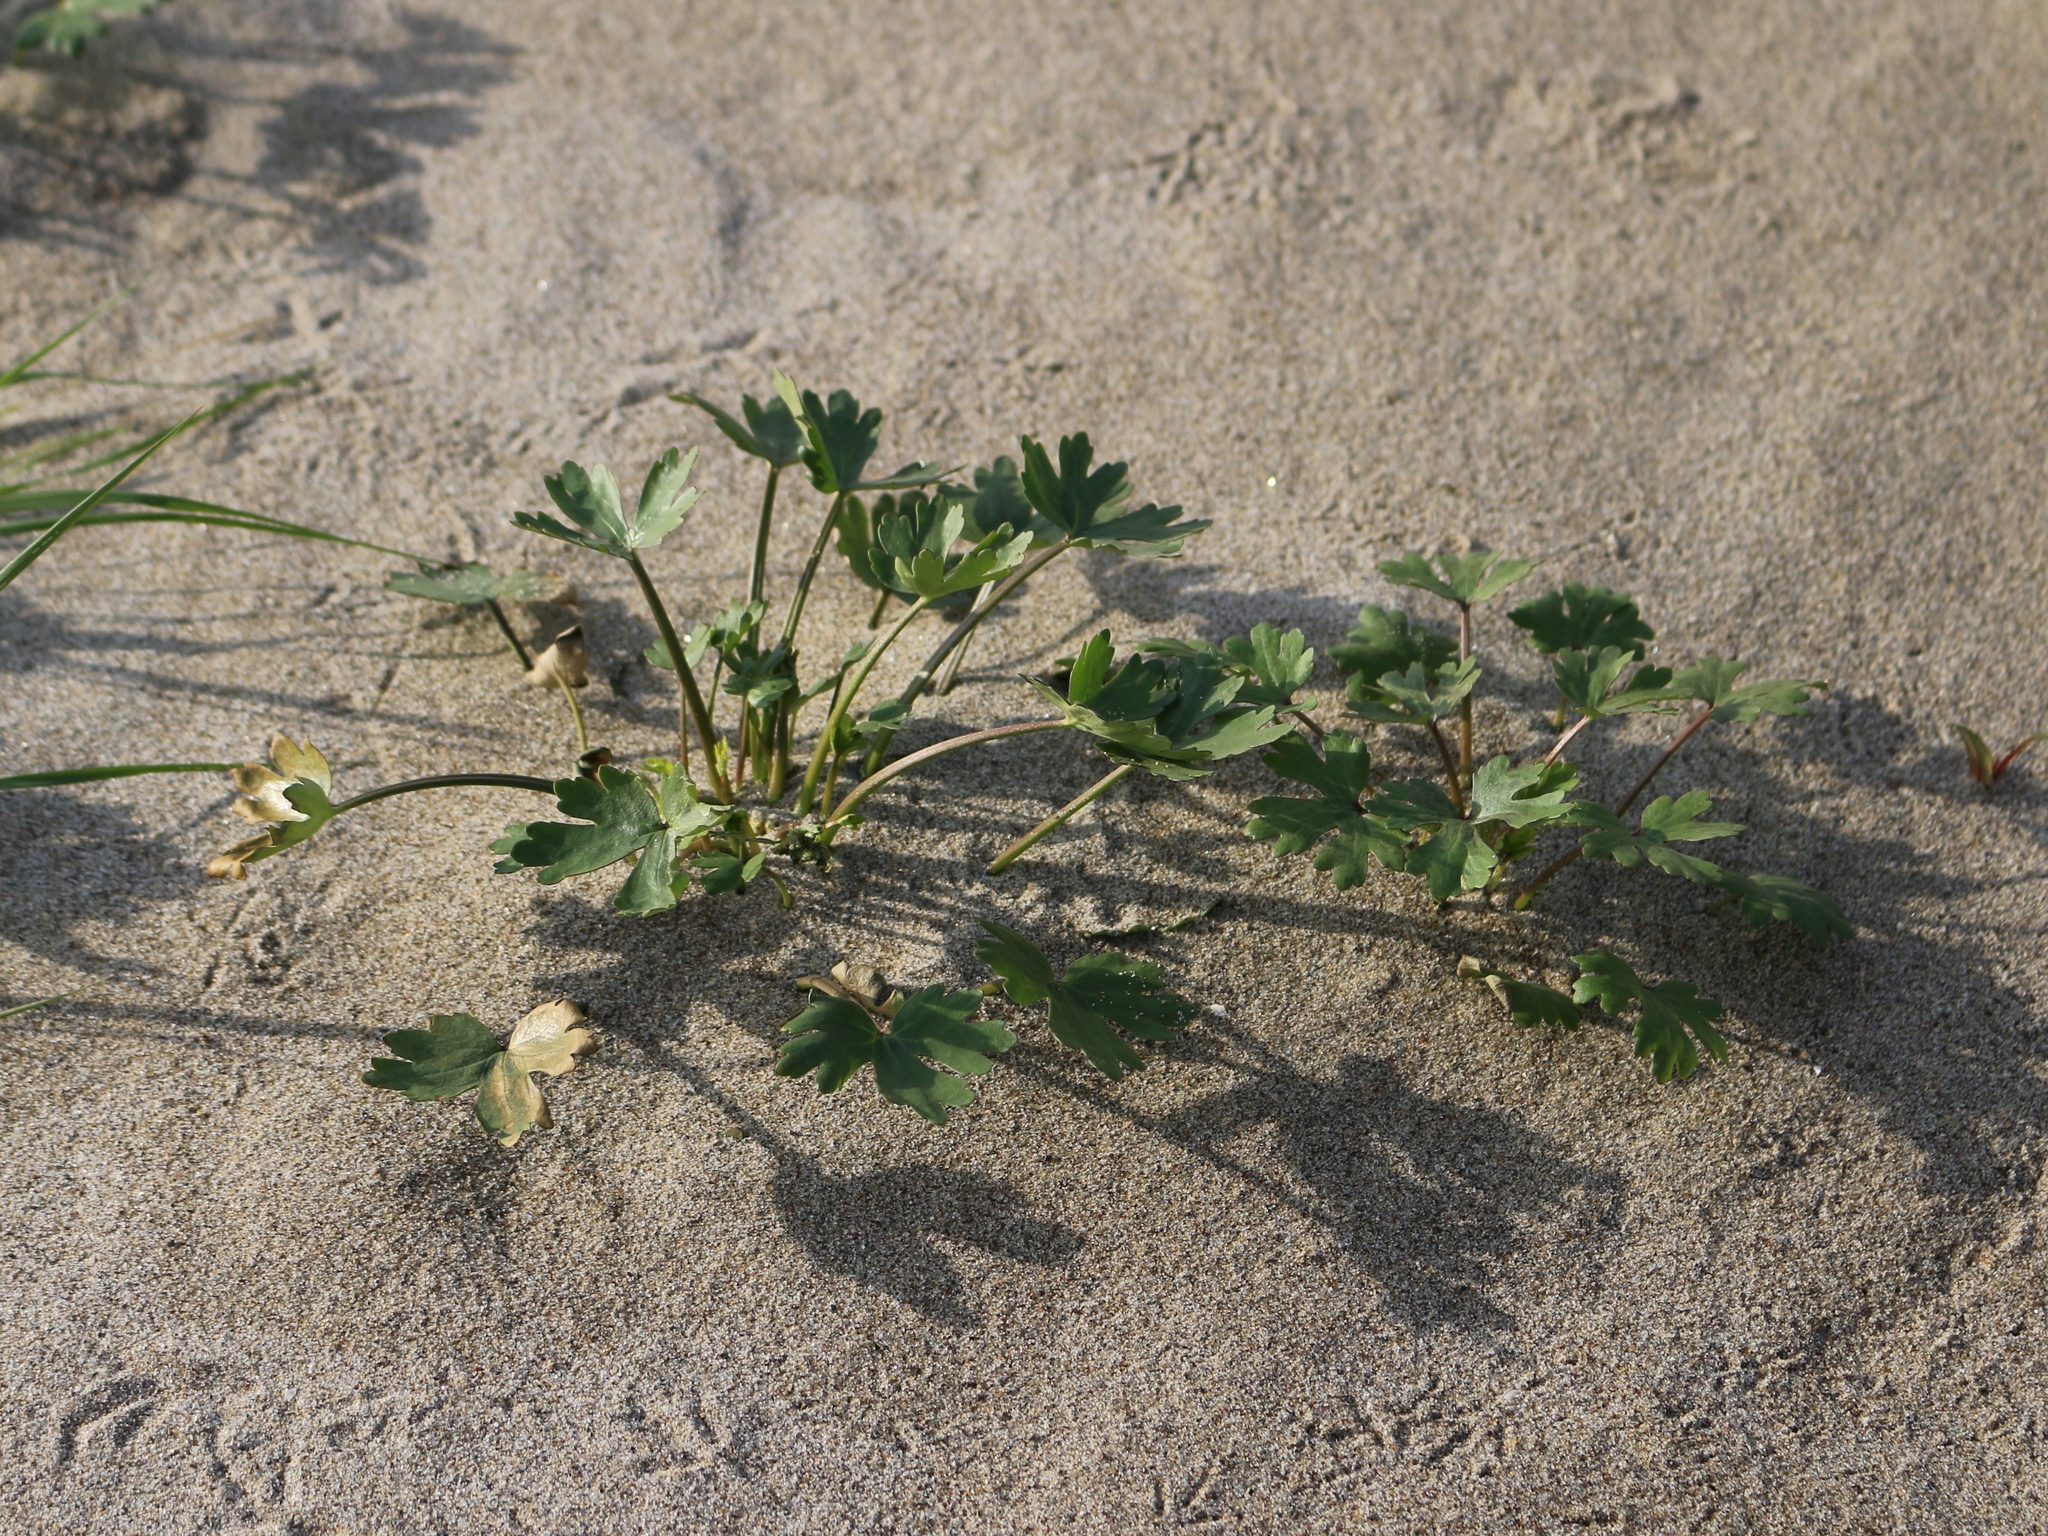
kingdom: Plantae
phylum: Tracheophyta
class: Magnoliopsida
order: Ranunculales
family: Ranunculaceae
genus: Ranunculus
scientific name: Ranunculus sceleratus
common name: Celery-leaved buttercup
